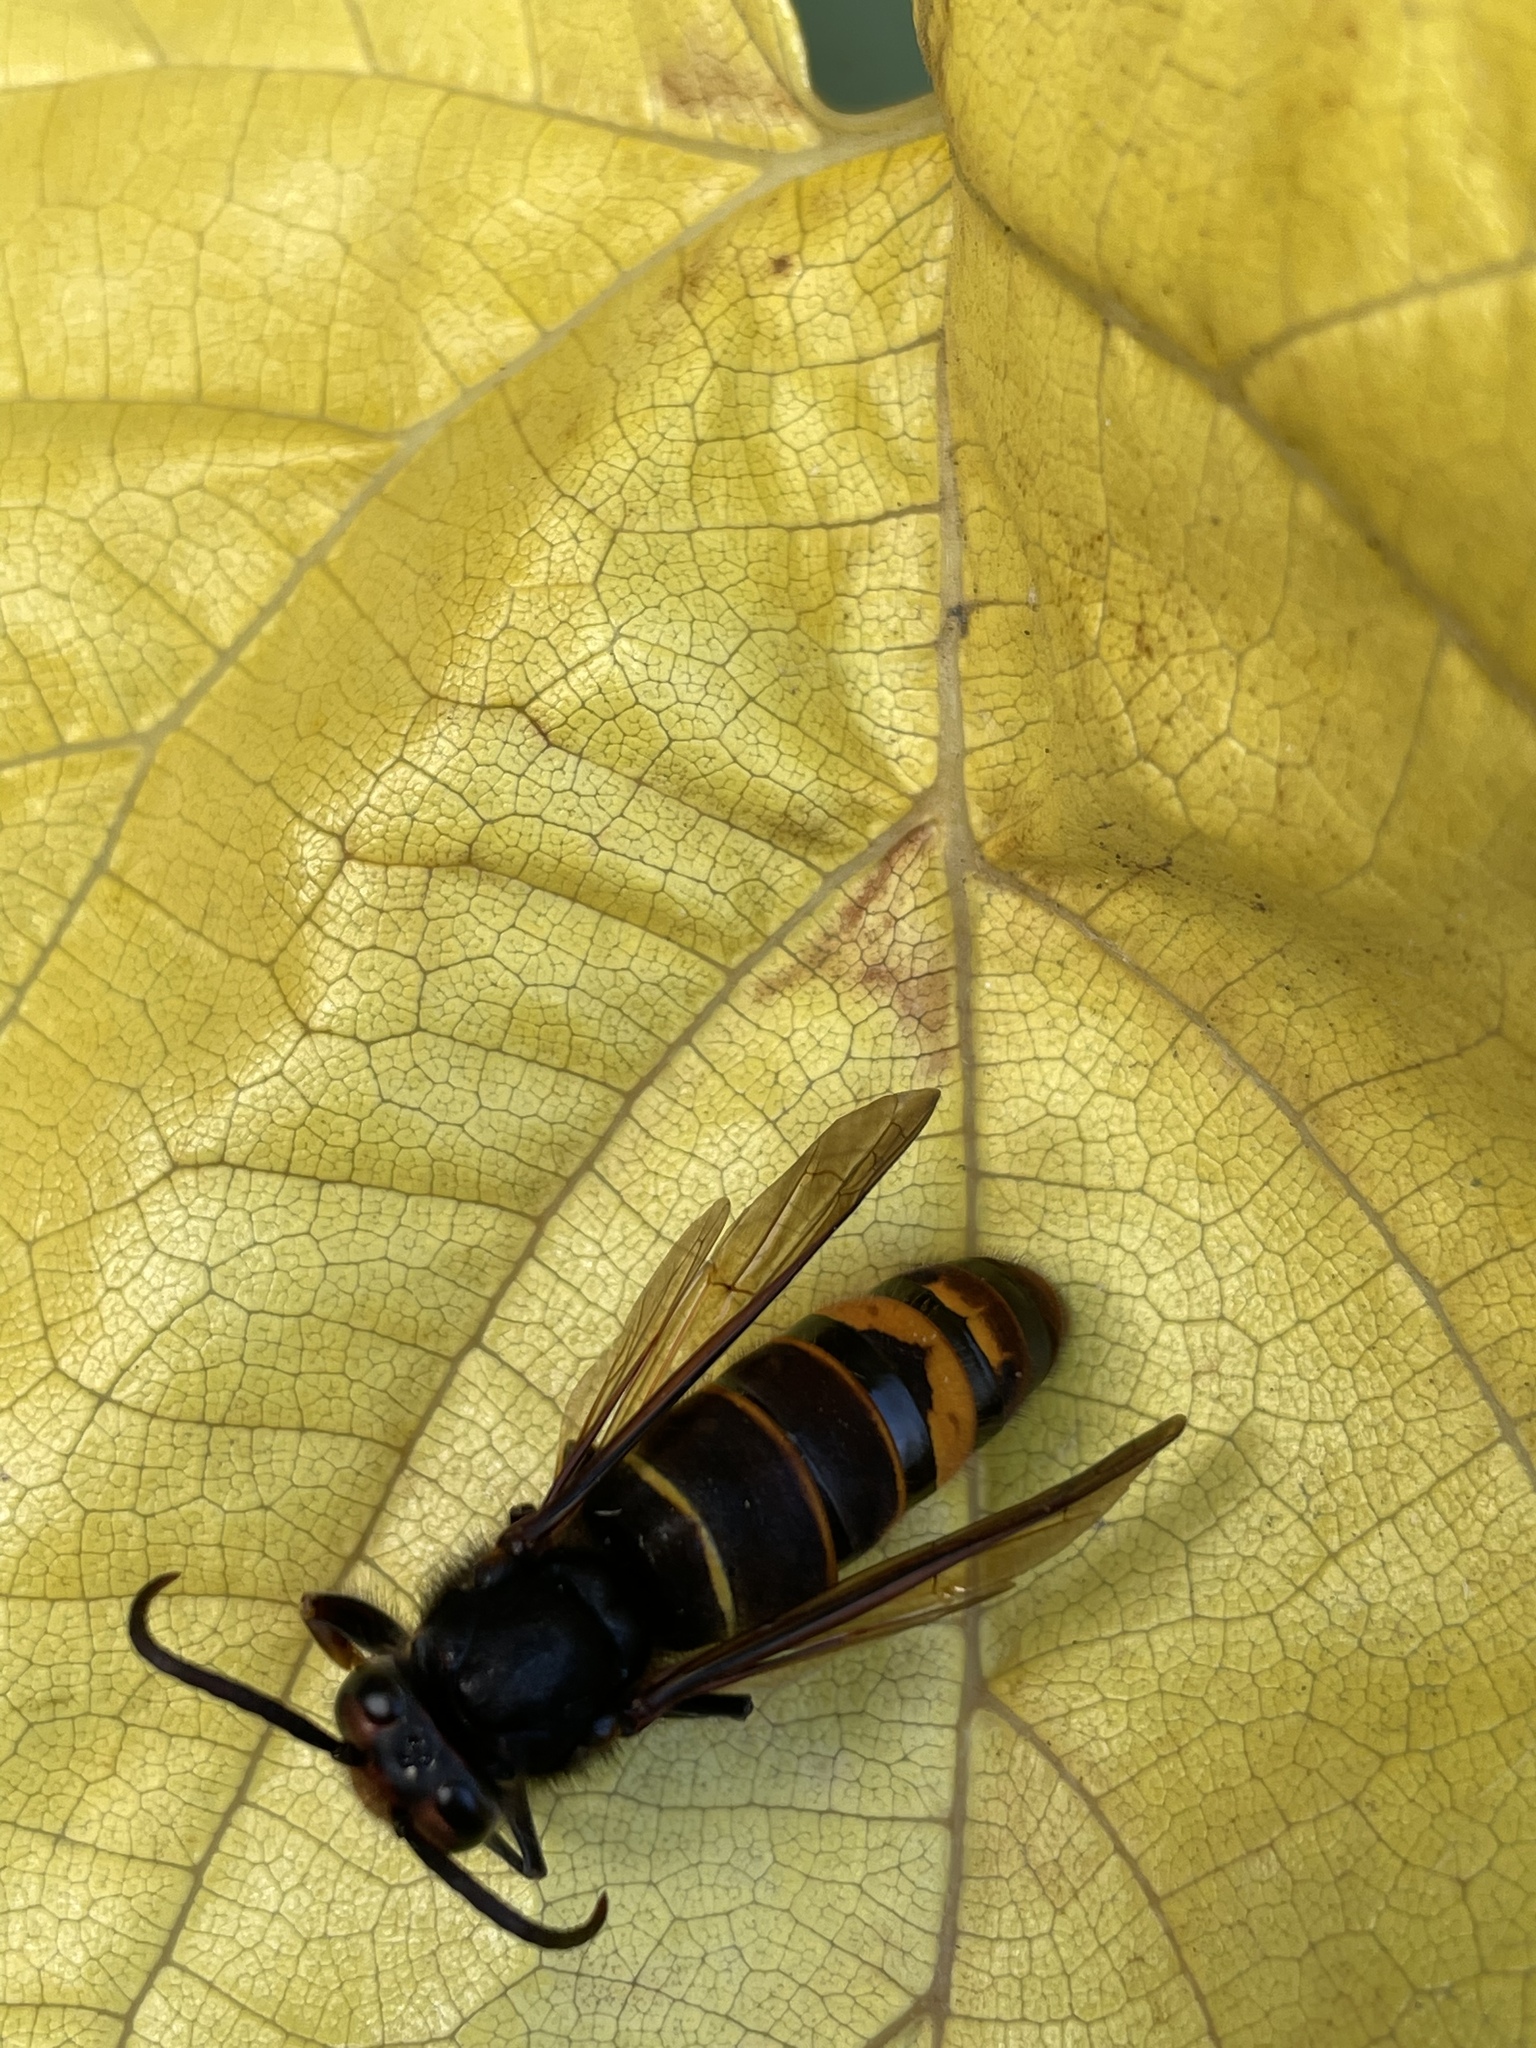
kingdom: Animalia
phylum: Arthropoda
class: Insecta
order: Hymenoptera
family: Vespidae
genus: Vespa
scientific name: Vespa velutina
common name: Asian hornet
